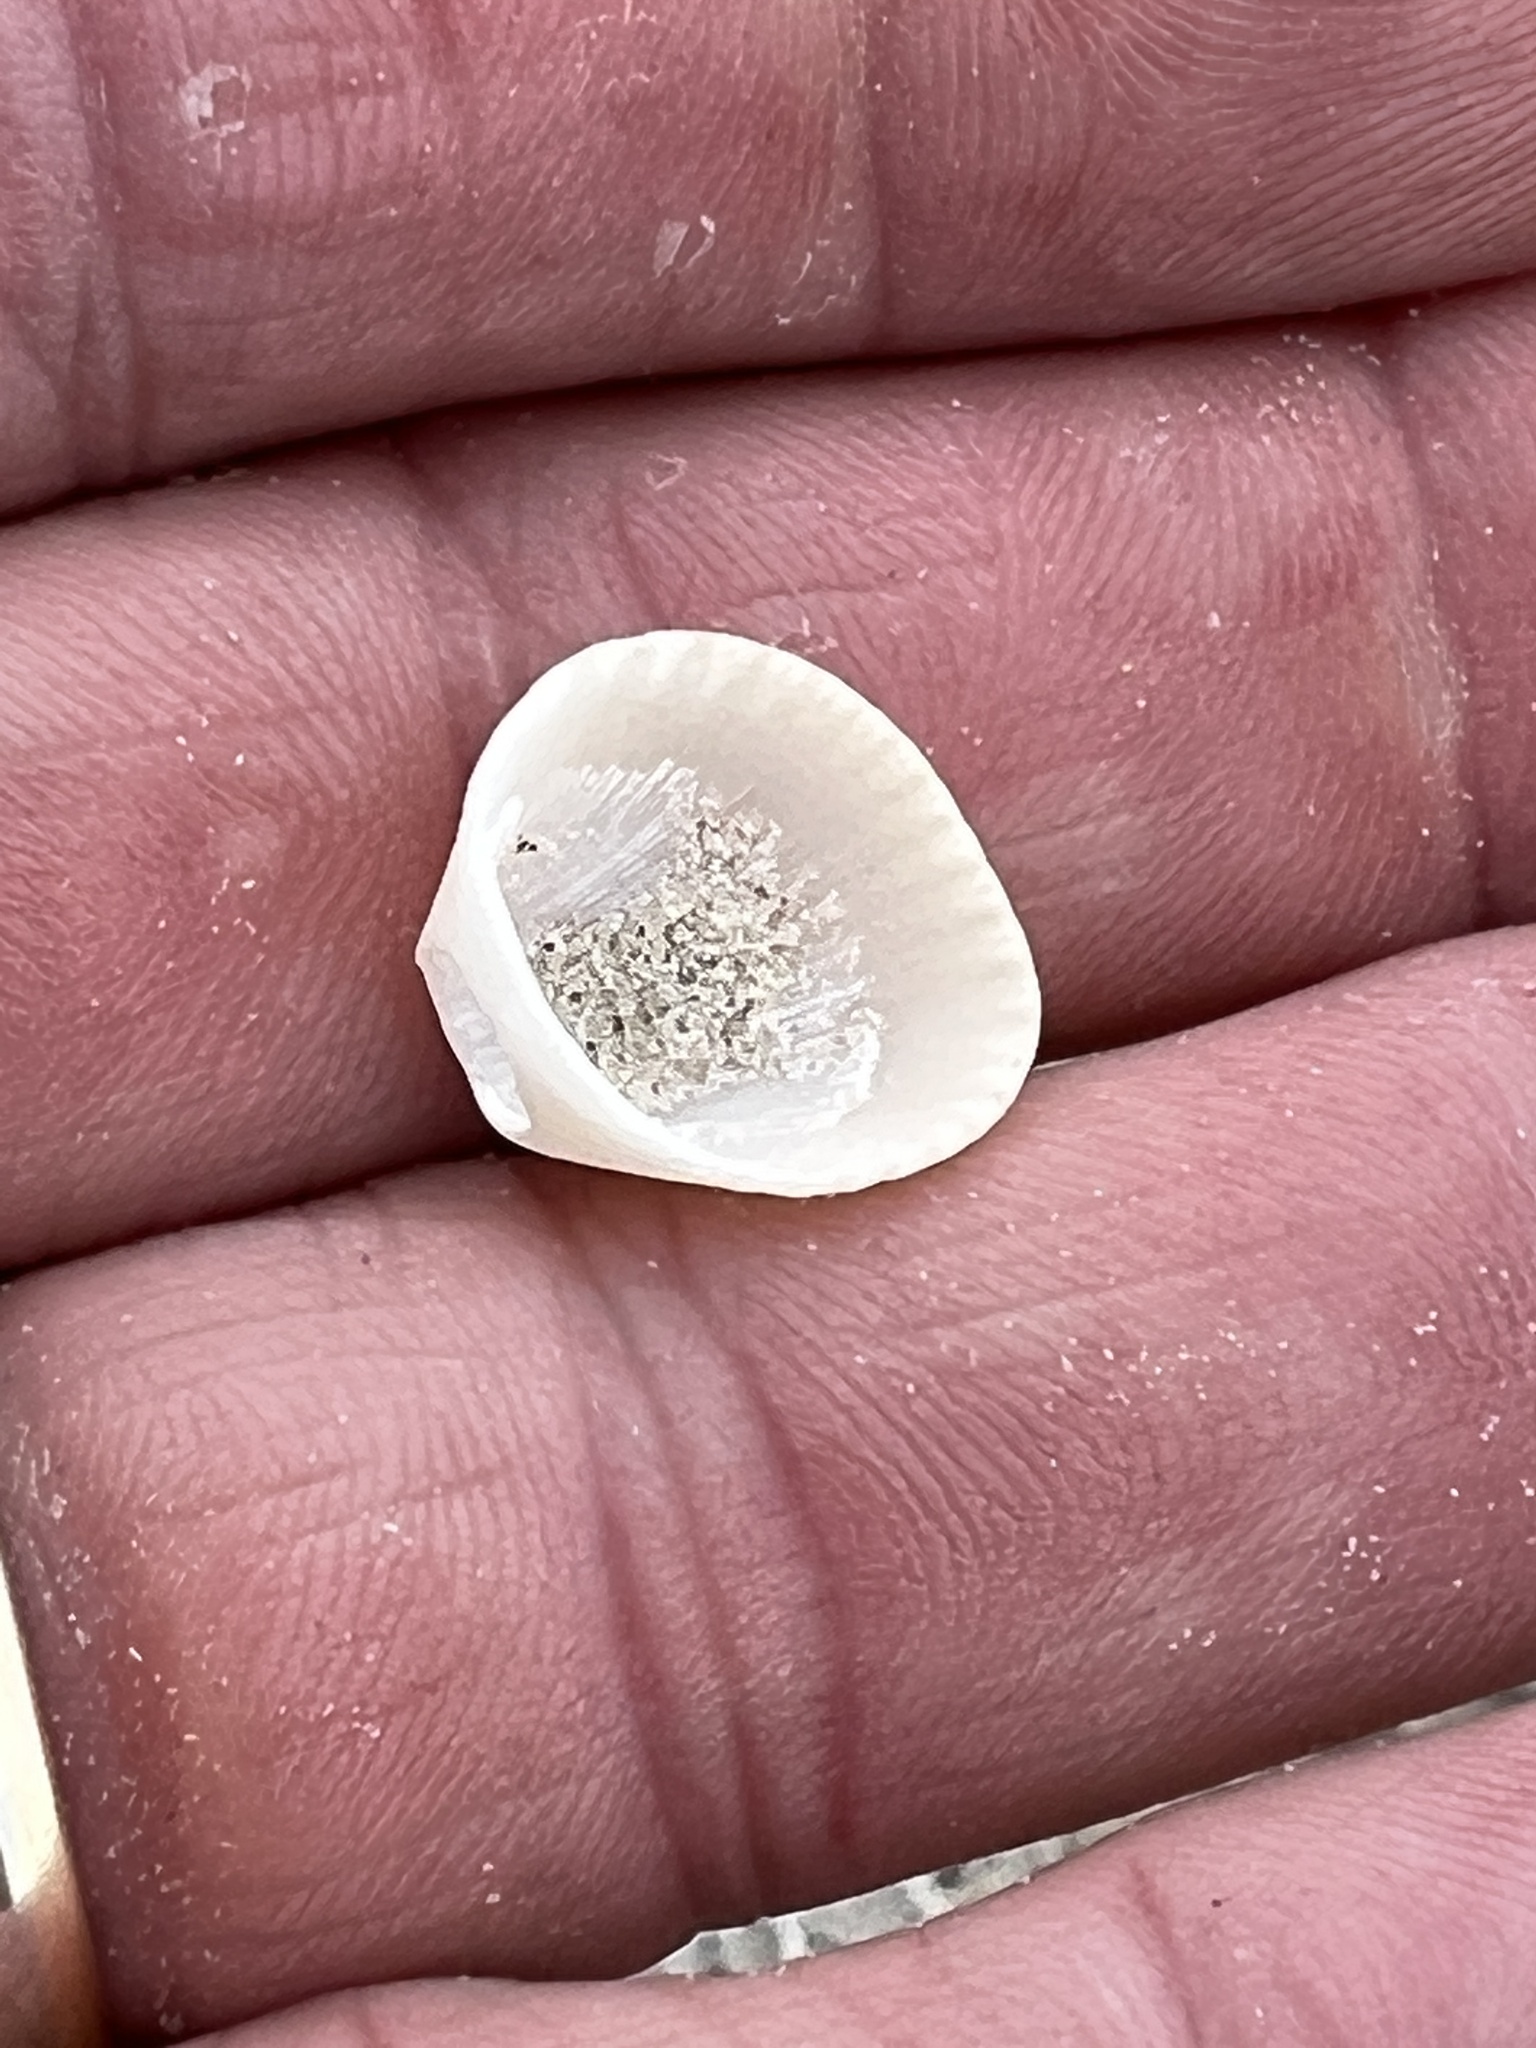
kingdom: Animalia
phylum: Mollusca
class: Bivalvia
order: Arcida
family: Arcidae
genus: Anadara
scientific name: Anadara chemnitzii
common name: Chemnitz's triangular ark
